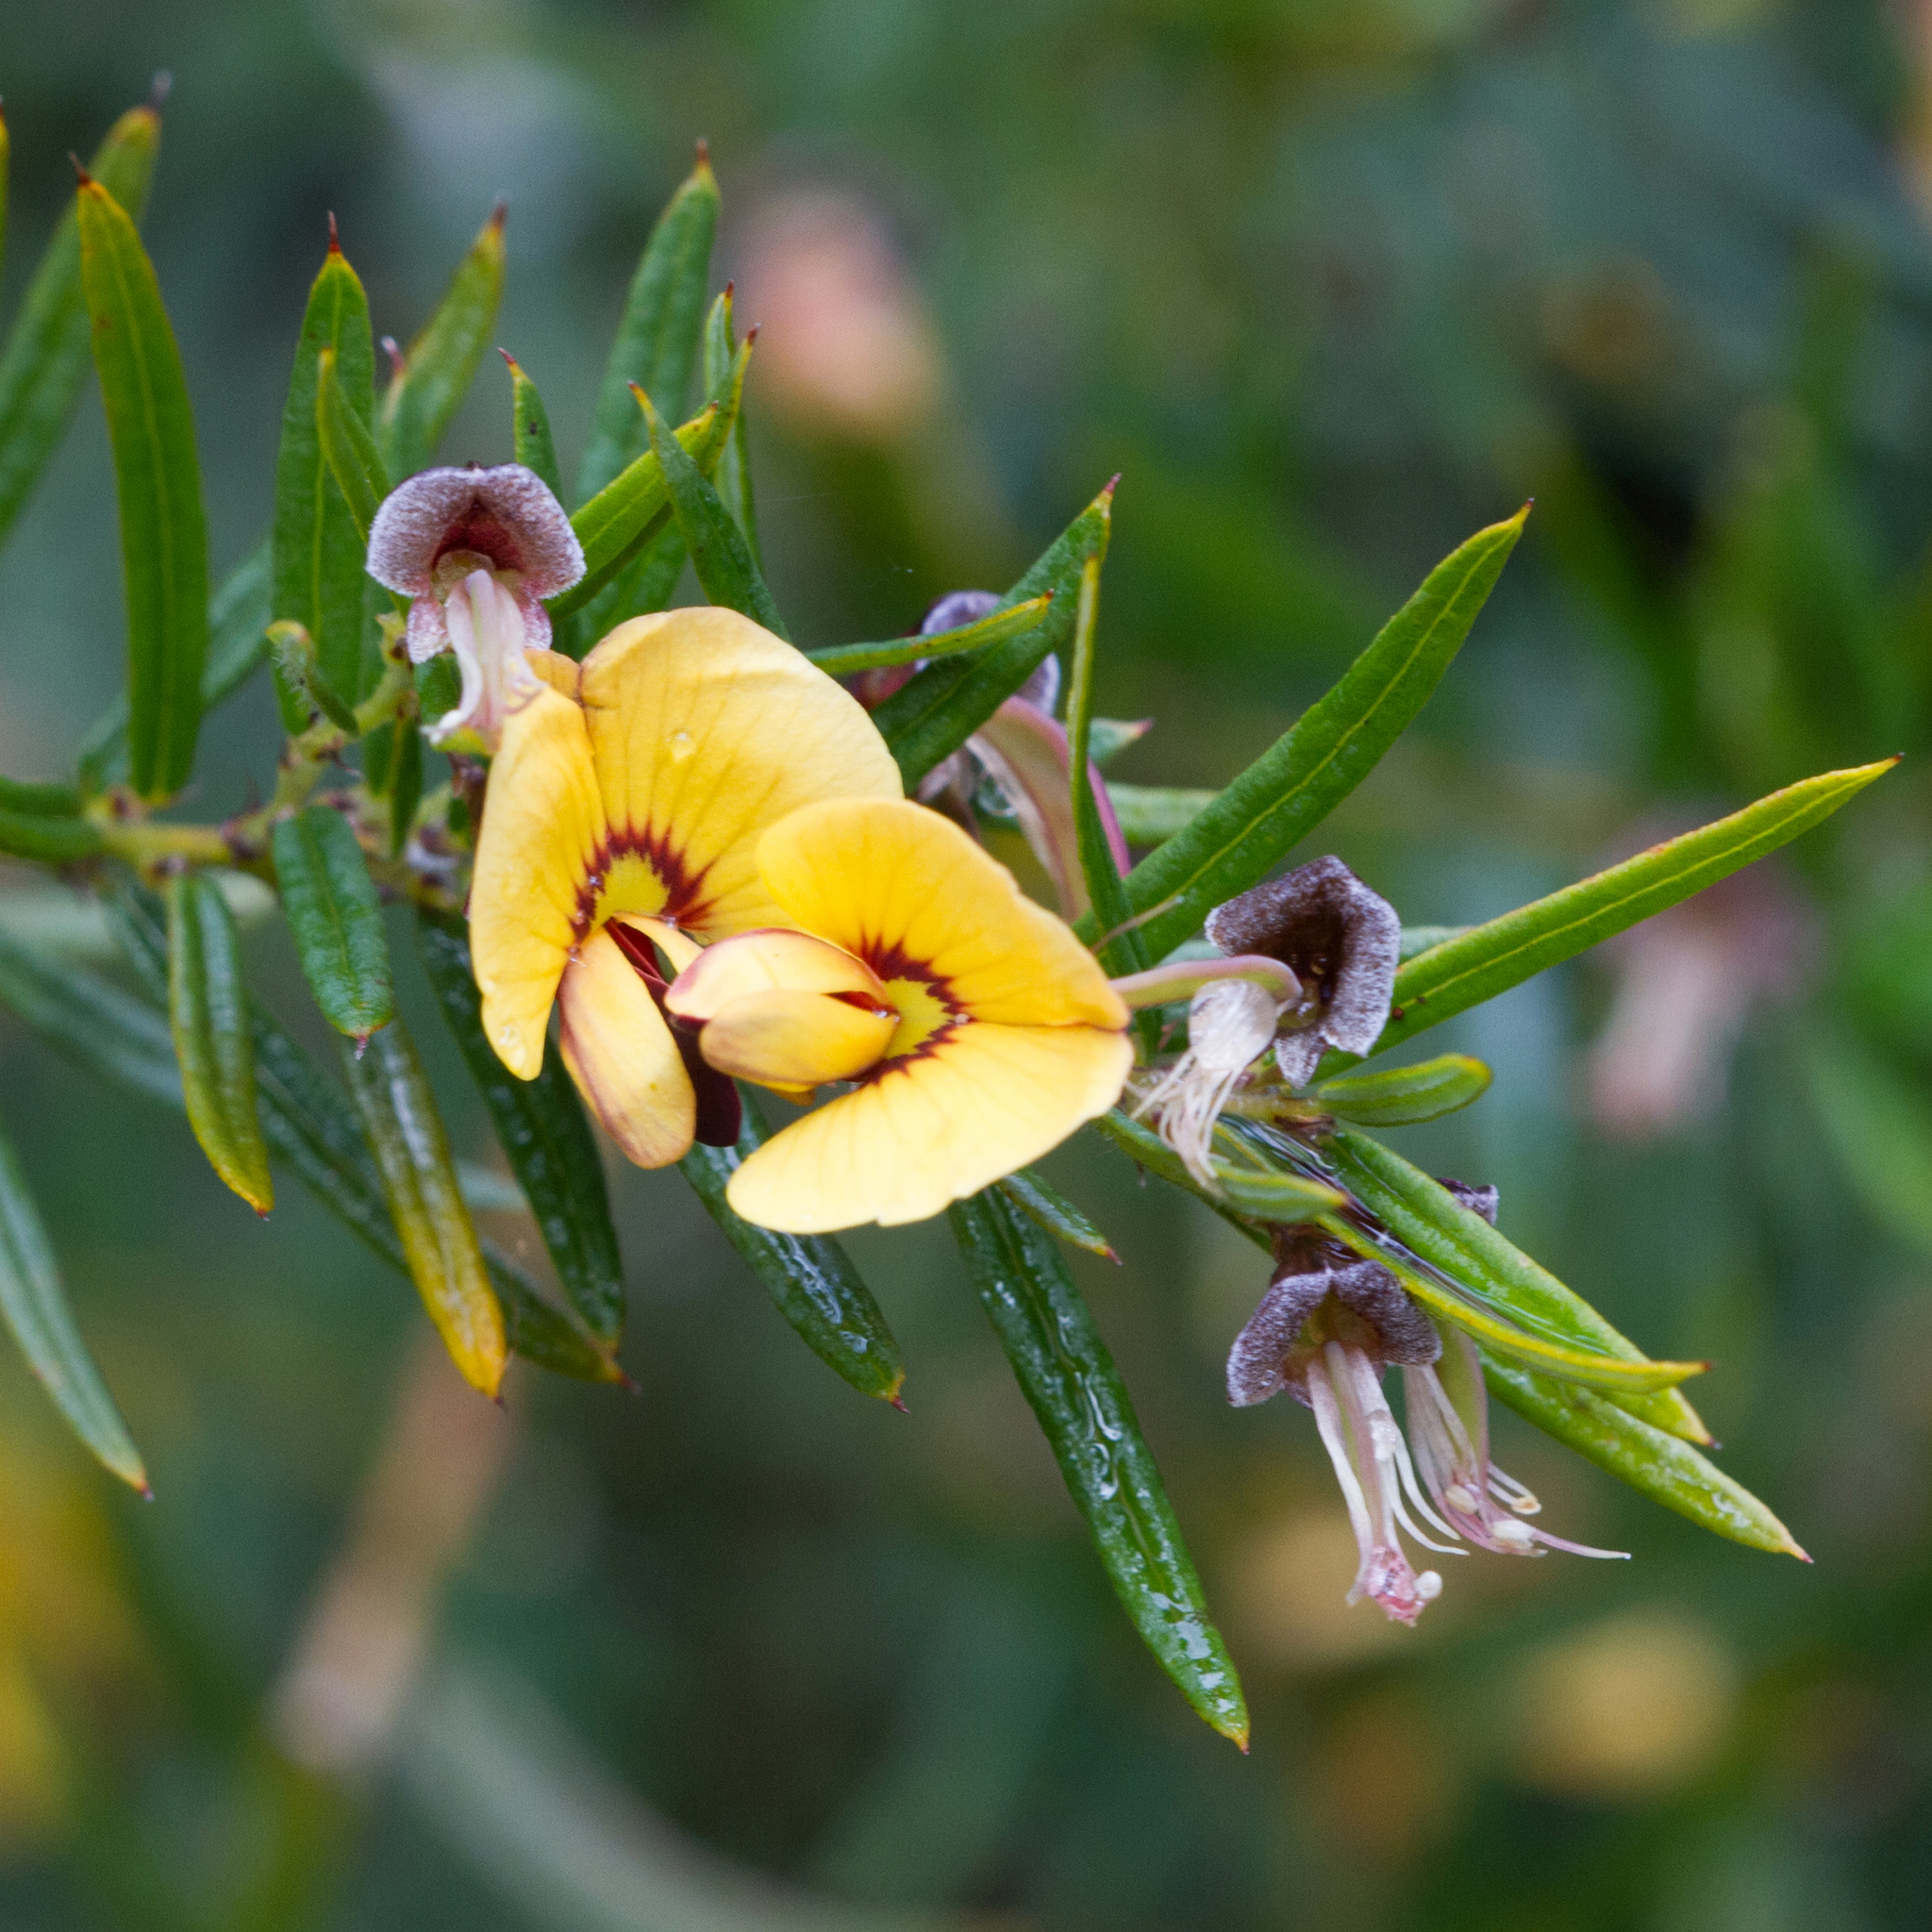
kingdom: Plantae
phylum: Tracheophyta
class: Magnoliopsida
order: Fabales
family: Fabaceae
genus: Bossiaea
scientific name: Bossiaea rosmarinifolia
